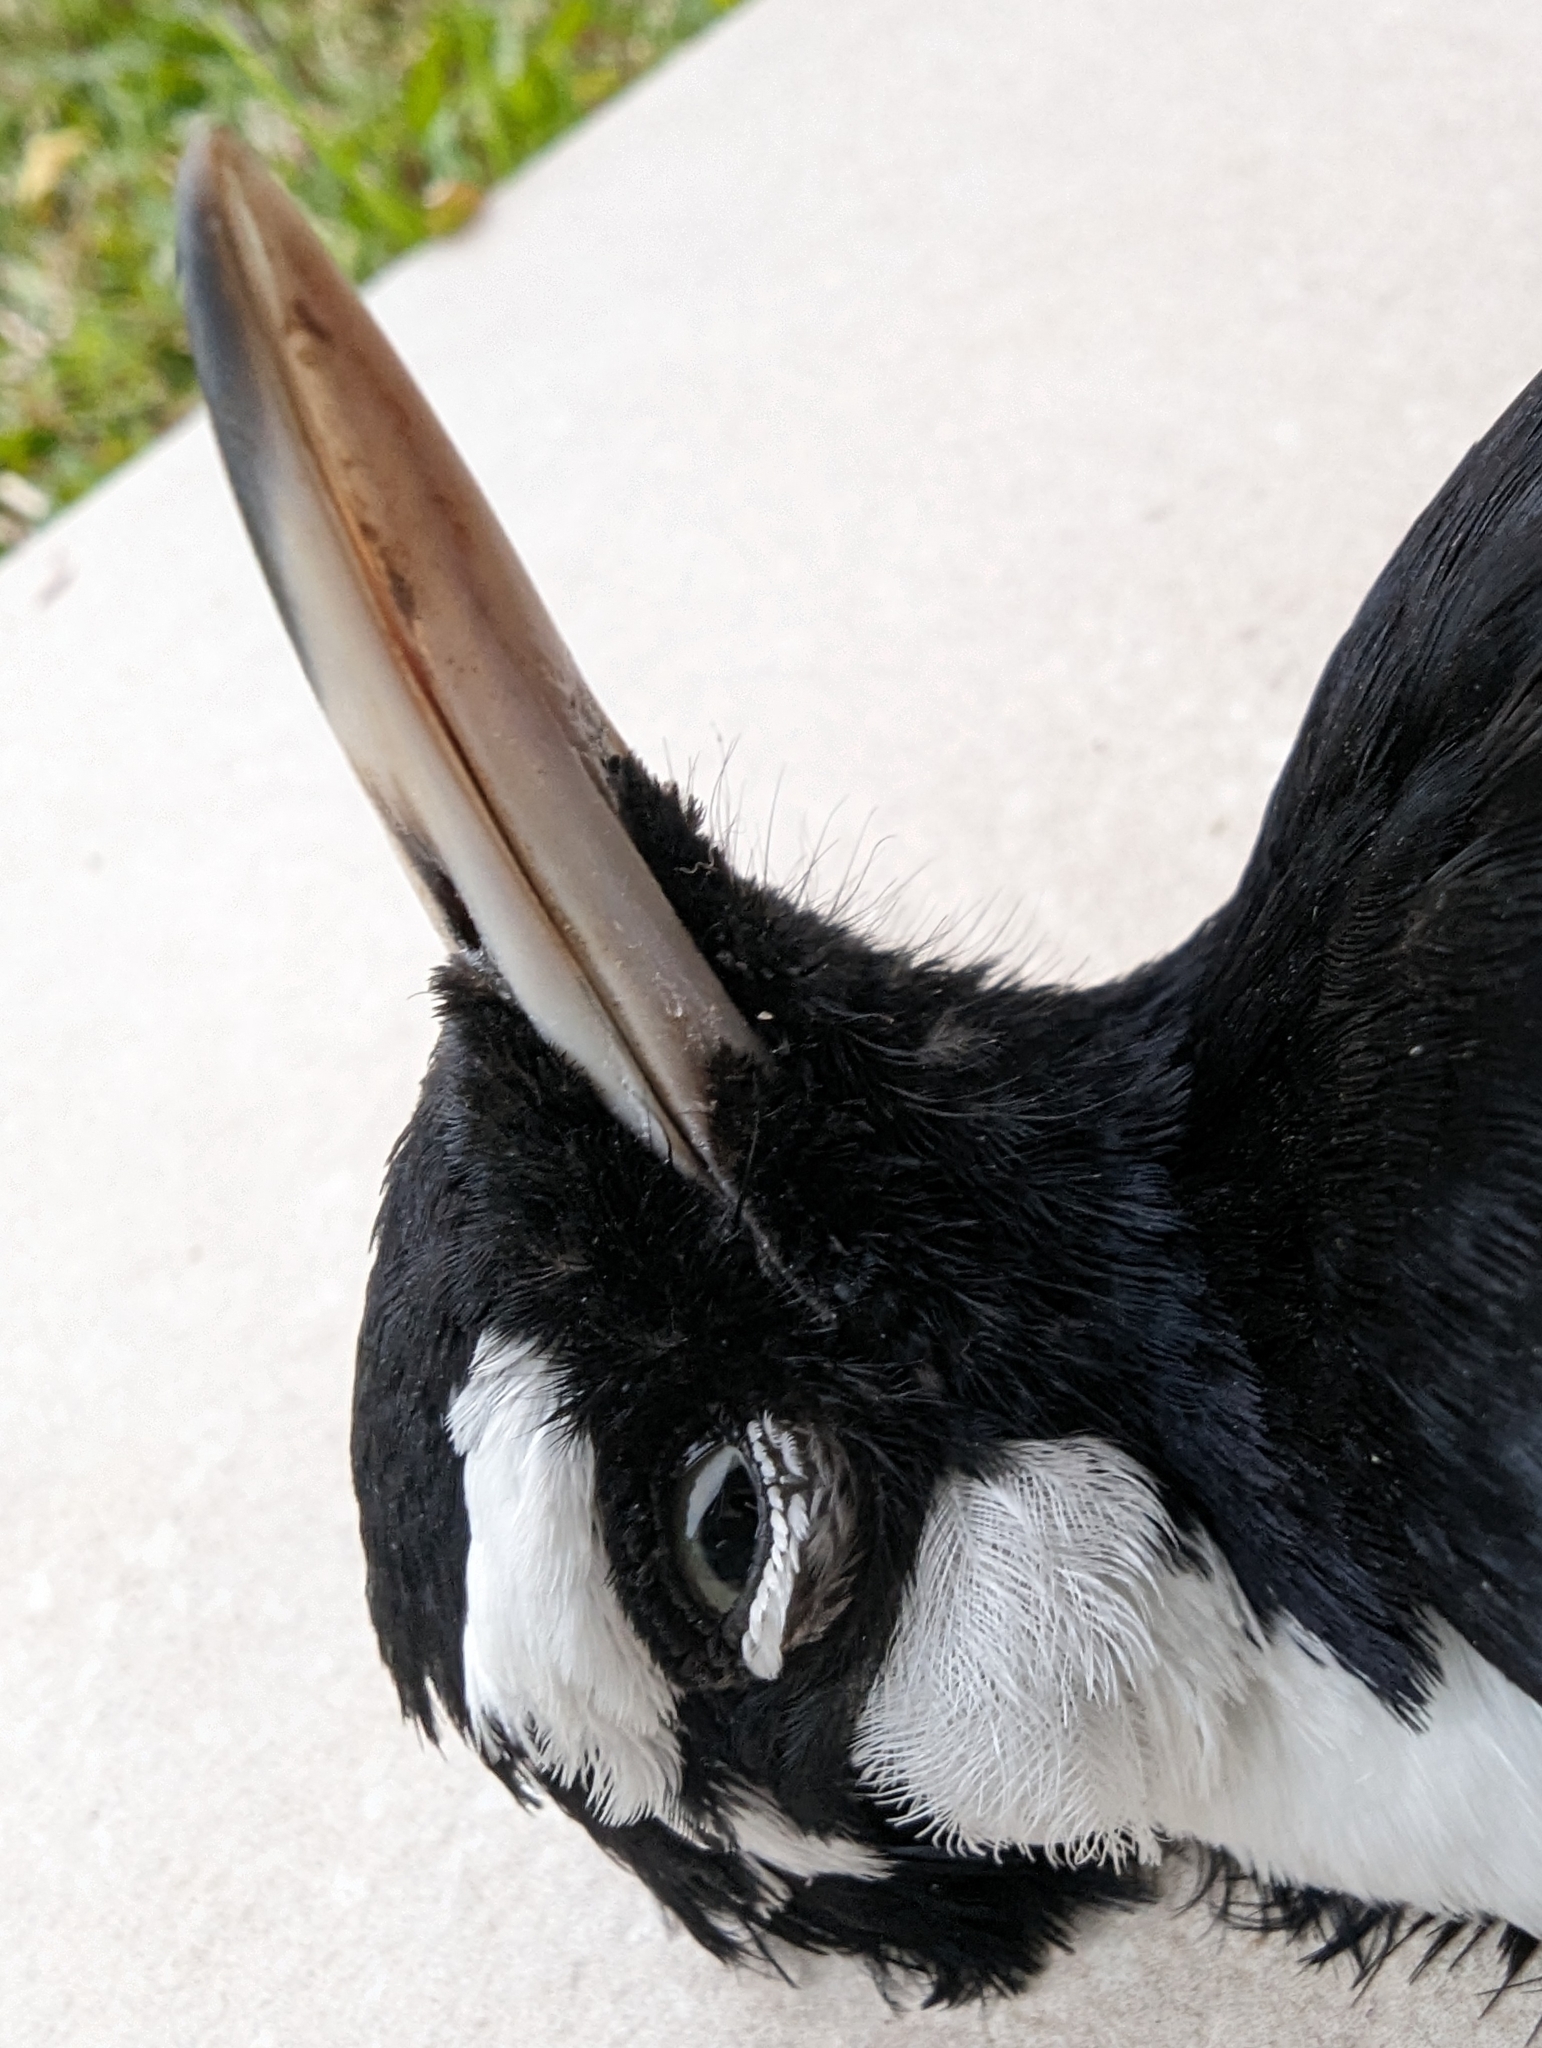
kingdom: Animalia
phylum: Chordata
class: Aves
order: Passeriformes
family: Monarchidae
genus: Grallina
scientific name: Grallina cyanoleuca
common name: Magpie-lark
